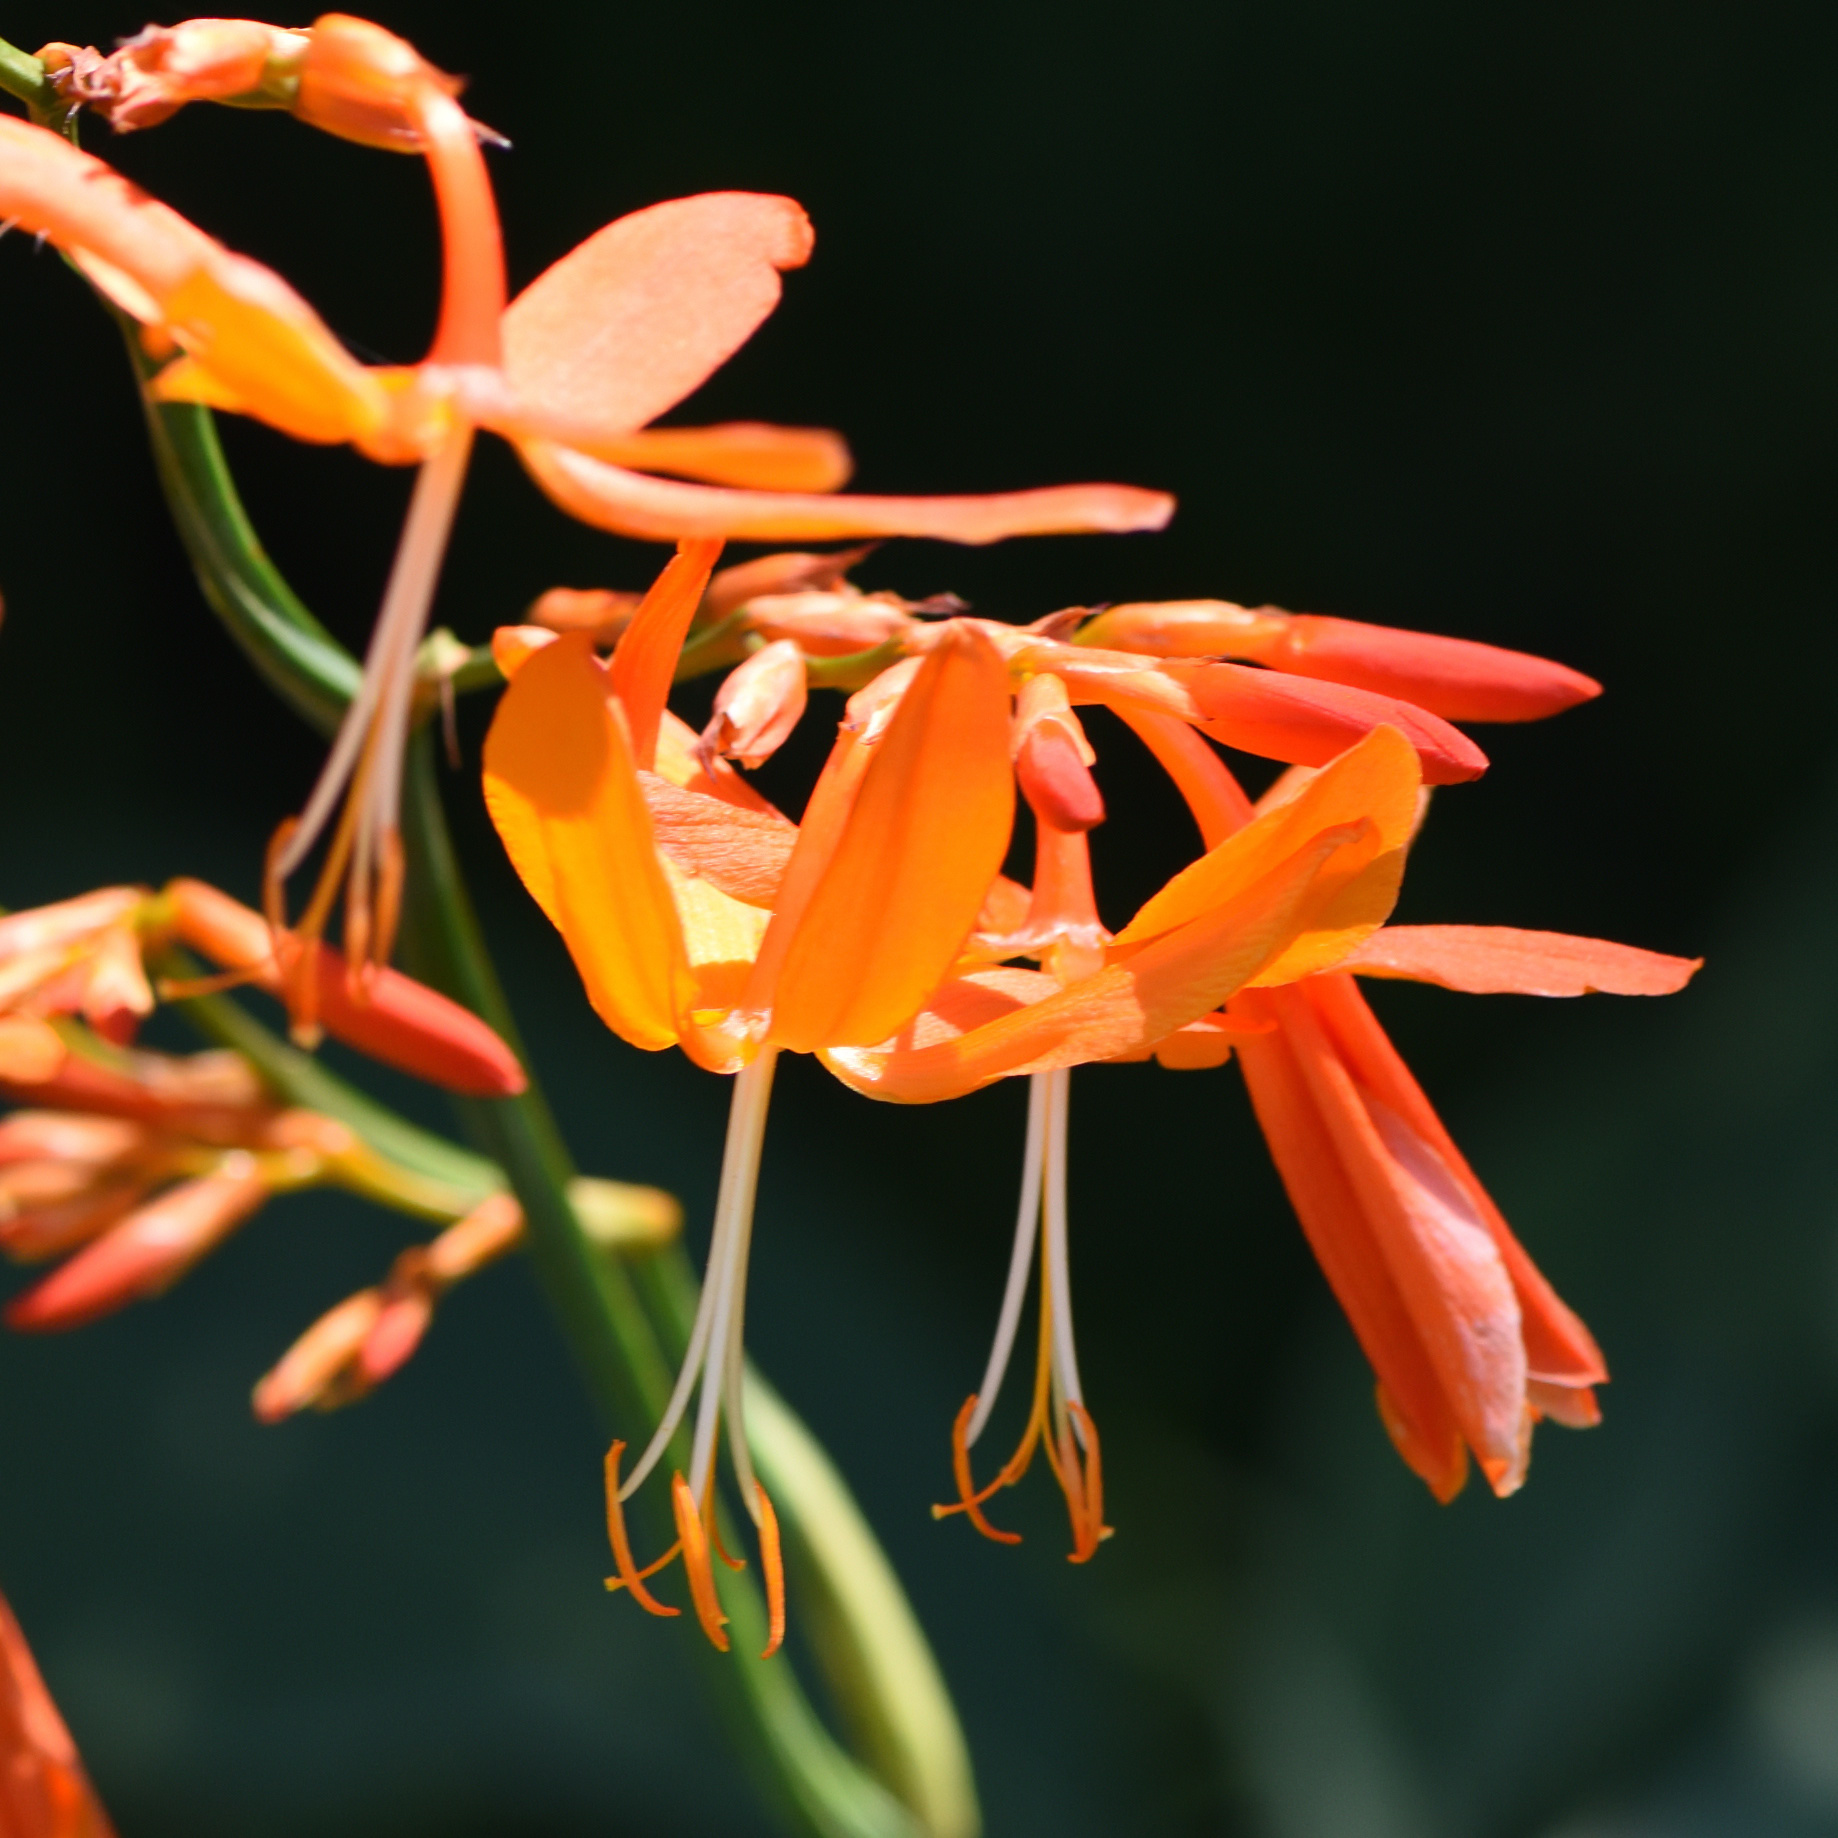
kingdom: Plantae
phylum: Tracheophyta
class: Liliopsida
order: Asparagales
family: Iridaceae
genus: Crocosmia
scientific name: Crocosmia aurea
